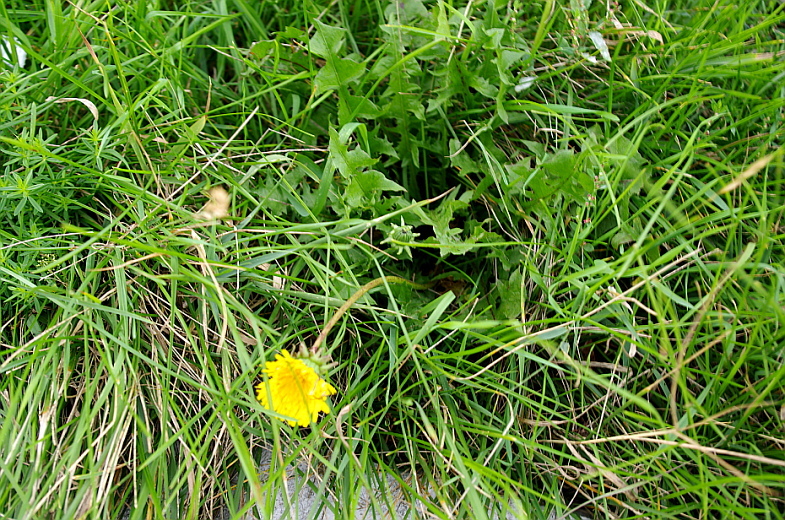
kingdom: Plantae
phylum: Tracheophyta
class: Magnoliopsida
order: Asterales
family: Asteraceae
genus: Taraxacum
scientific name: Taraxacum officinale
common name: Common dandelion
